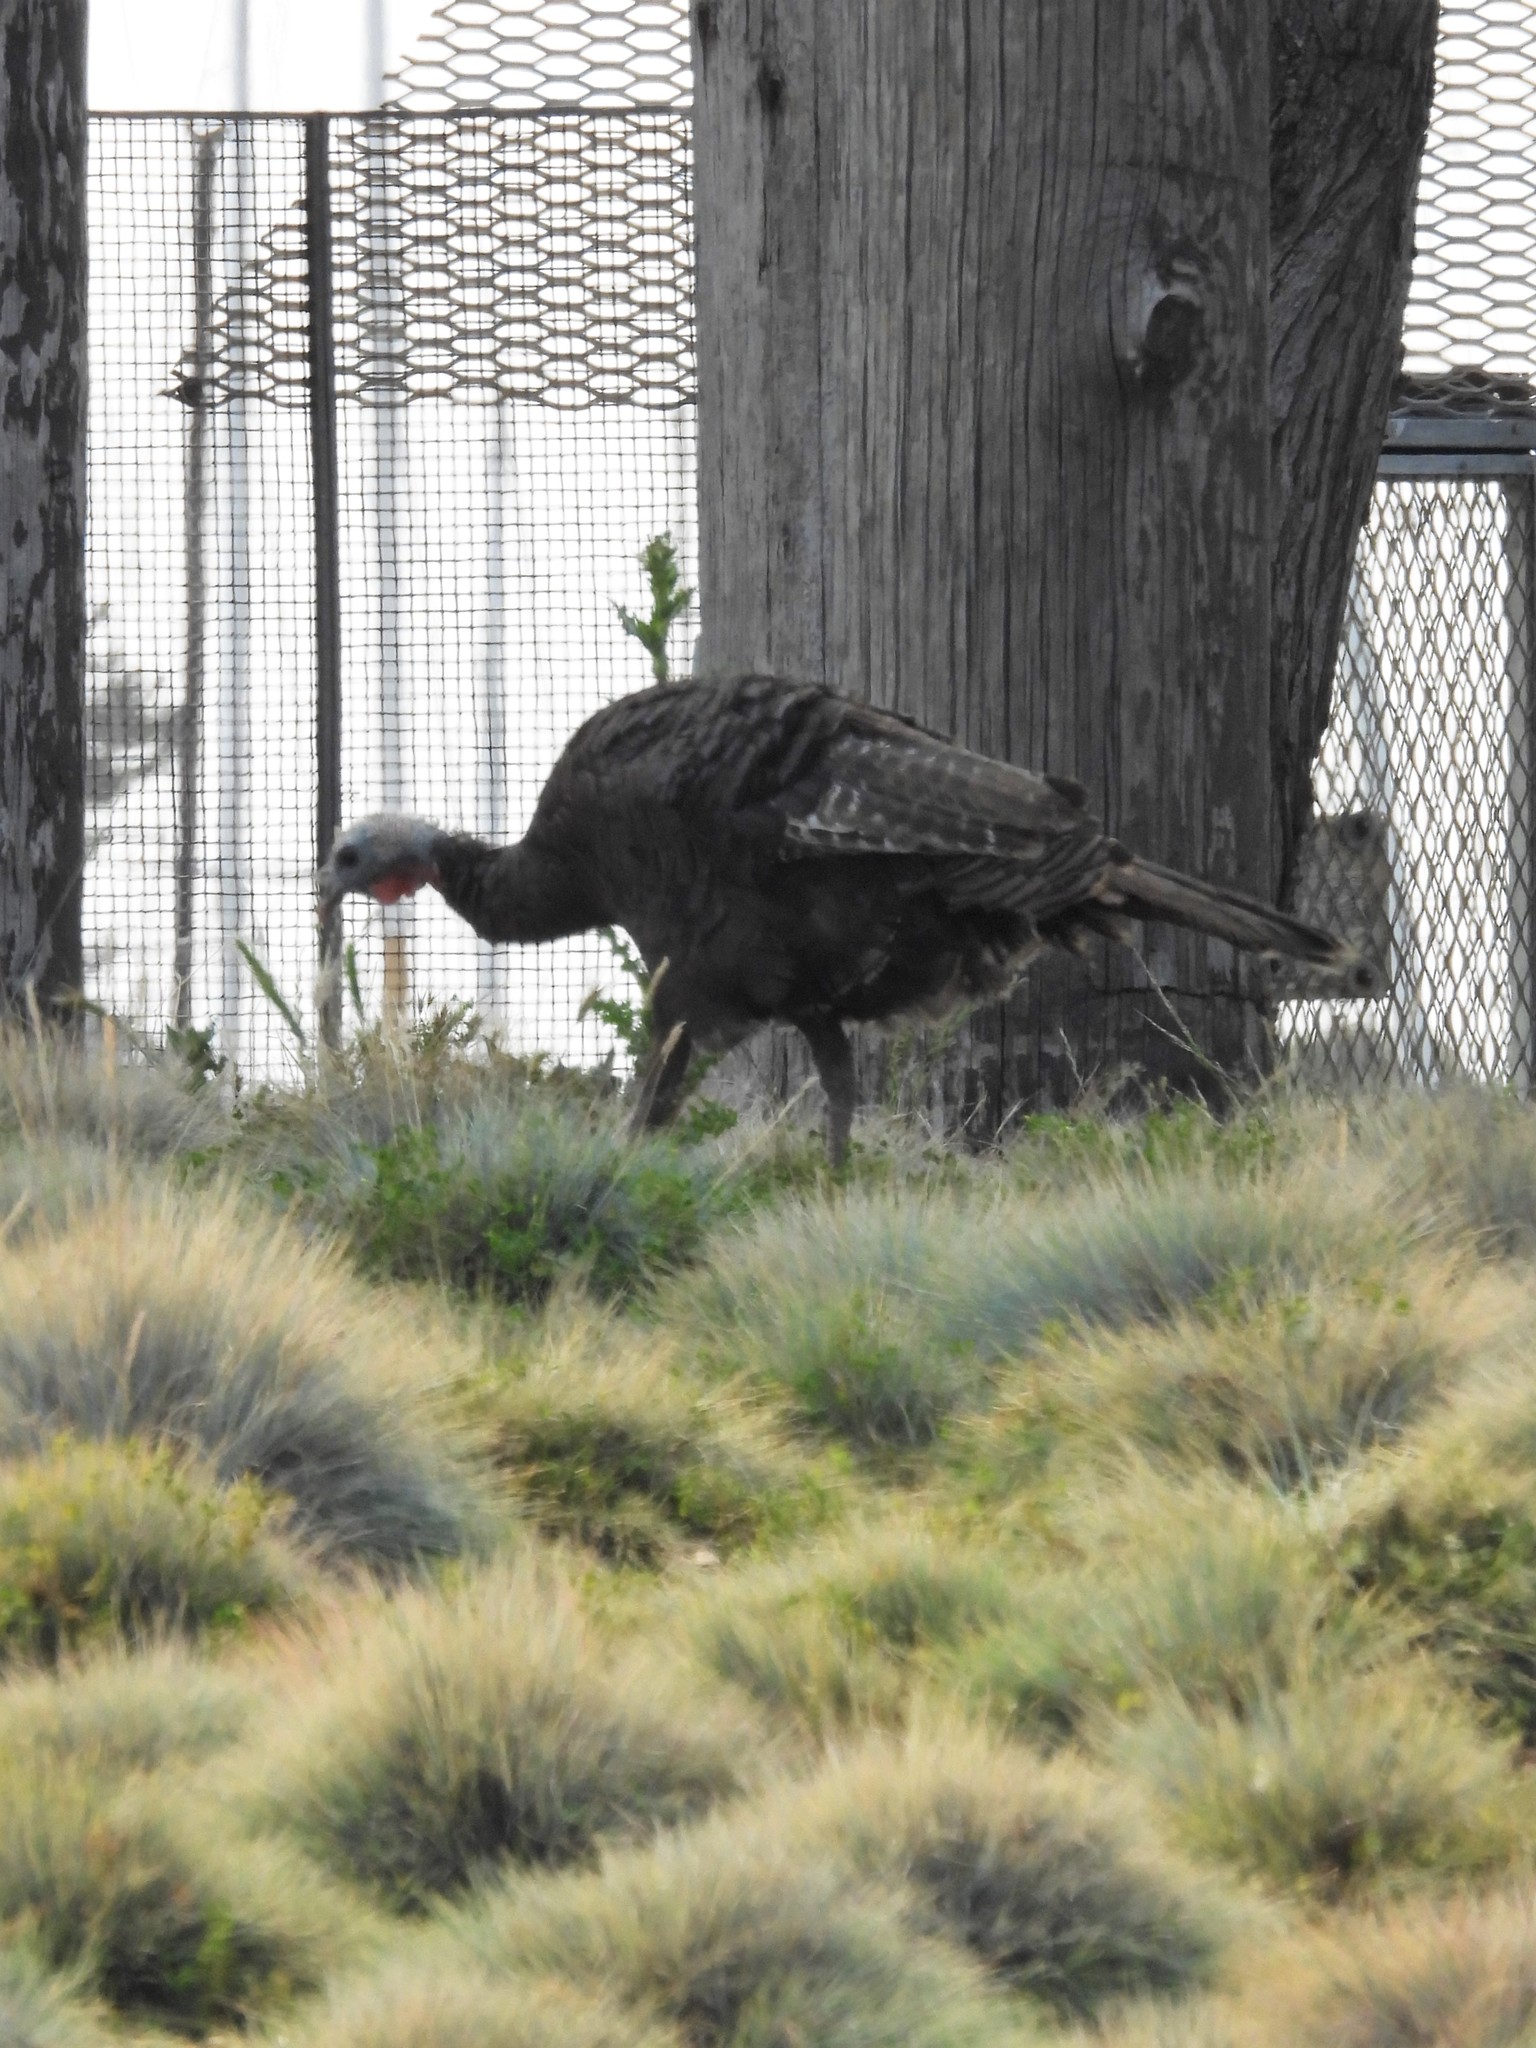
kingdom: Animalia
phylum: Chordata
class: Aves
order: Galliformes
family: Phasianidae
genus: Meleagris
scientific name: Meleagris gallopavo
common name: Wild turkey
